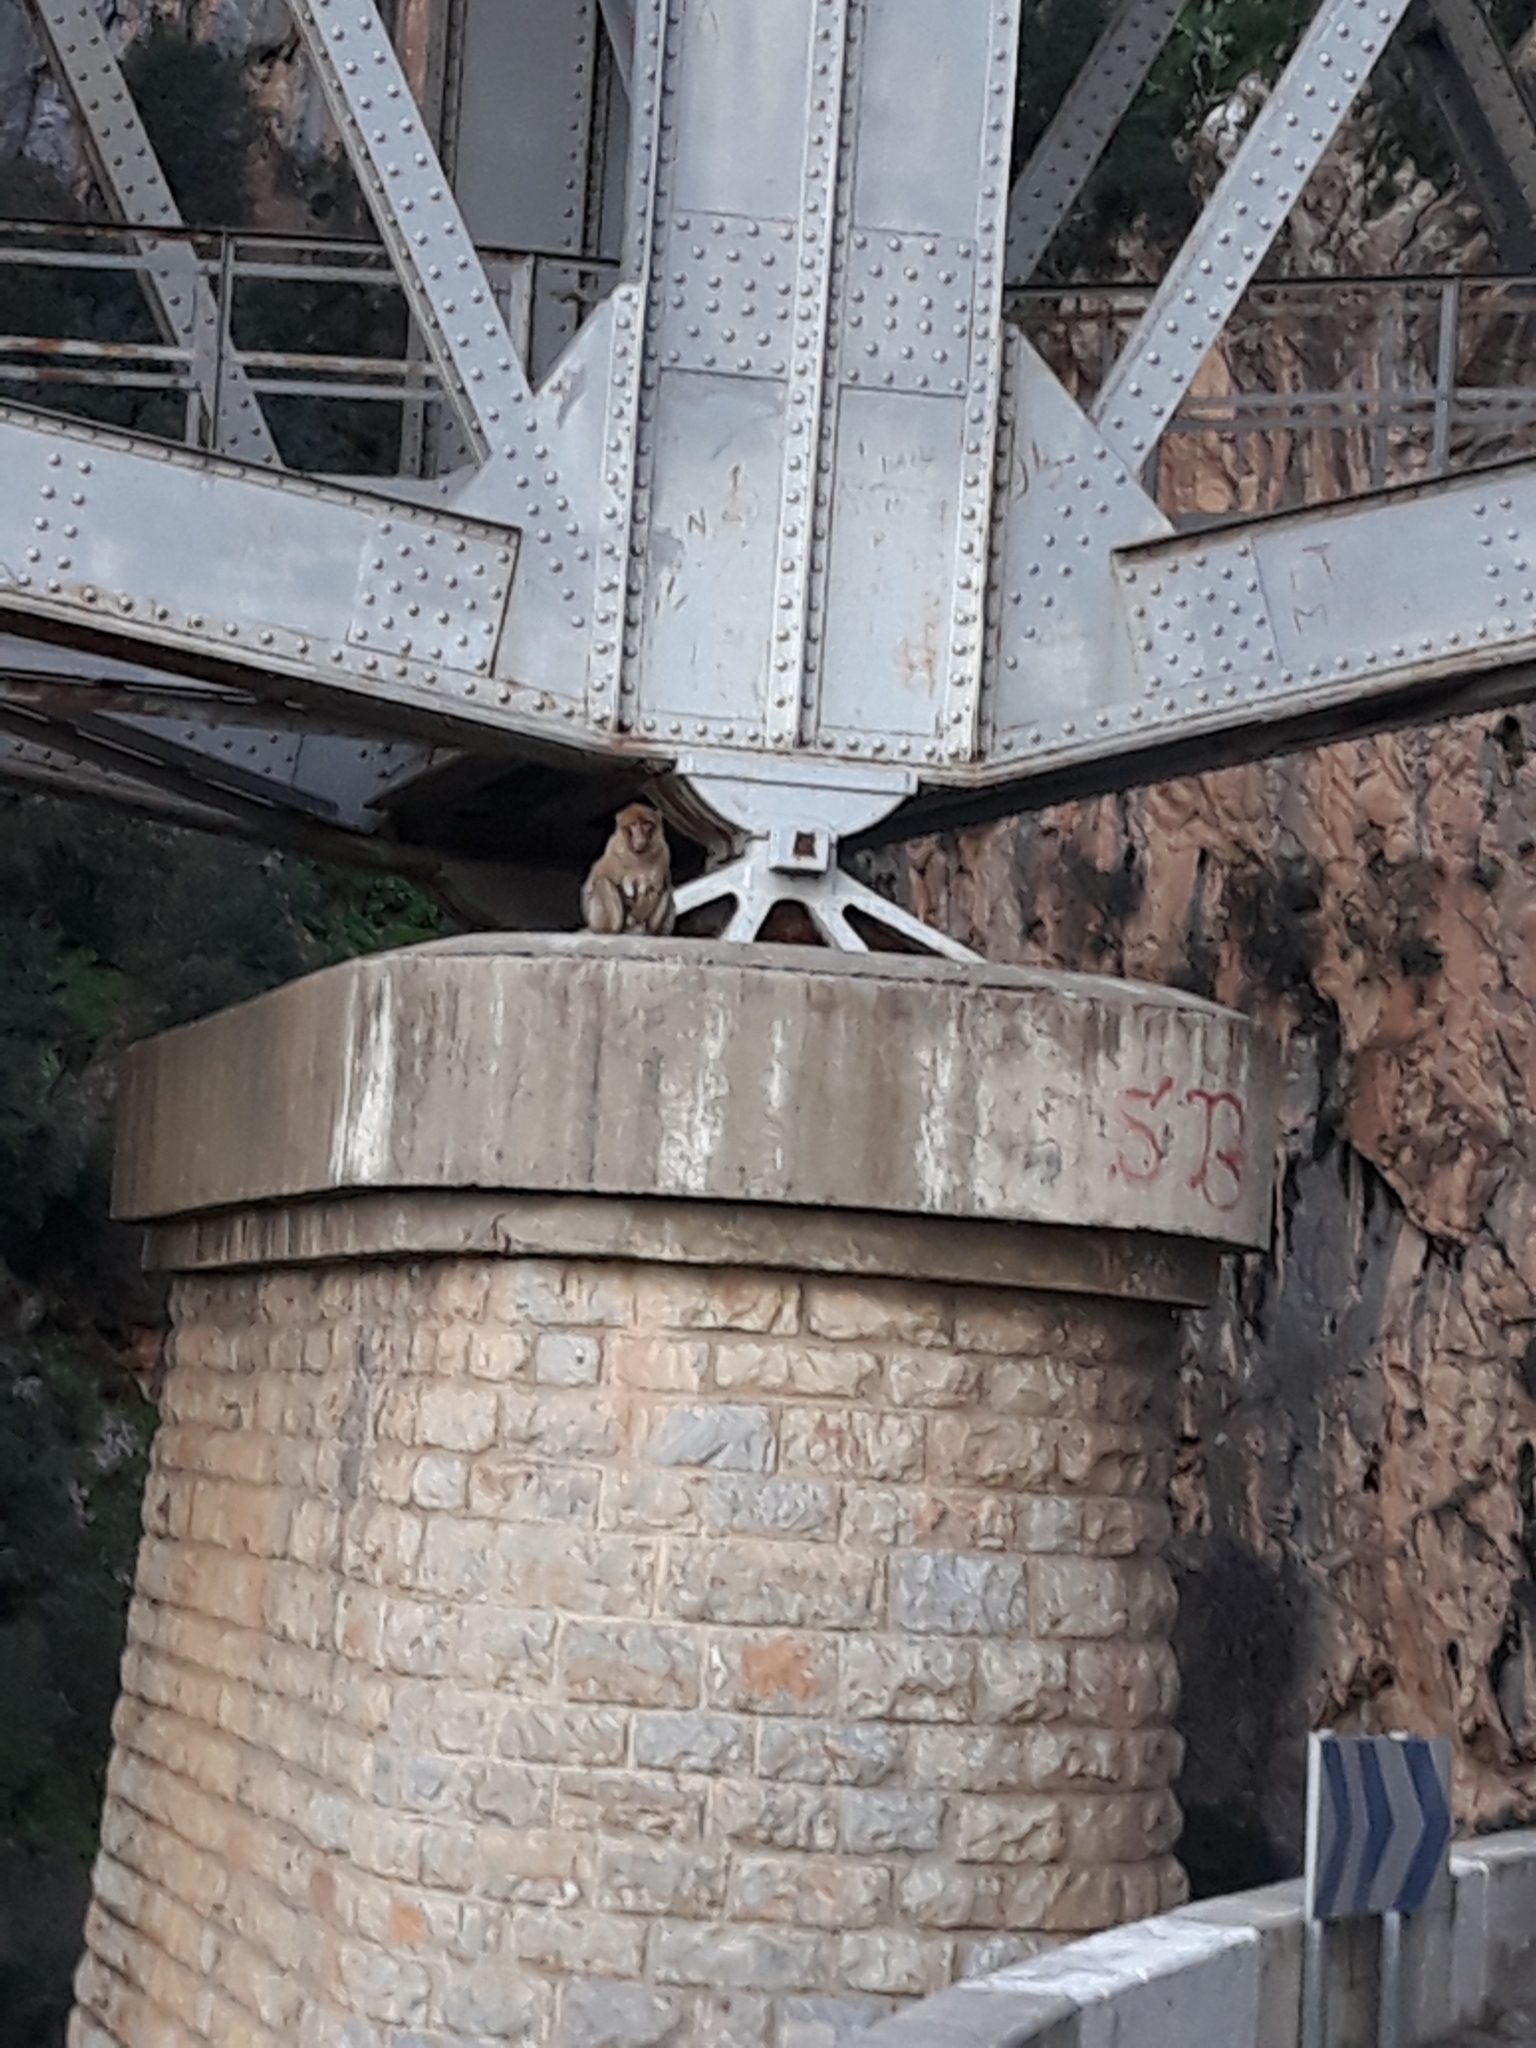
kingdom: Animalia
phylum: Chordata
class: Mammalia
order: Primates
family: Cercopithecidae
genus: Macaca
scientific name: Macaca sylvanus
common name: Barbary macaque
